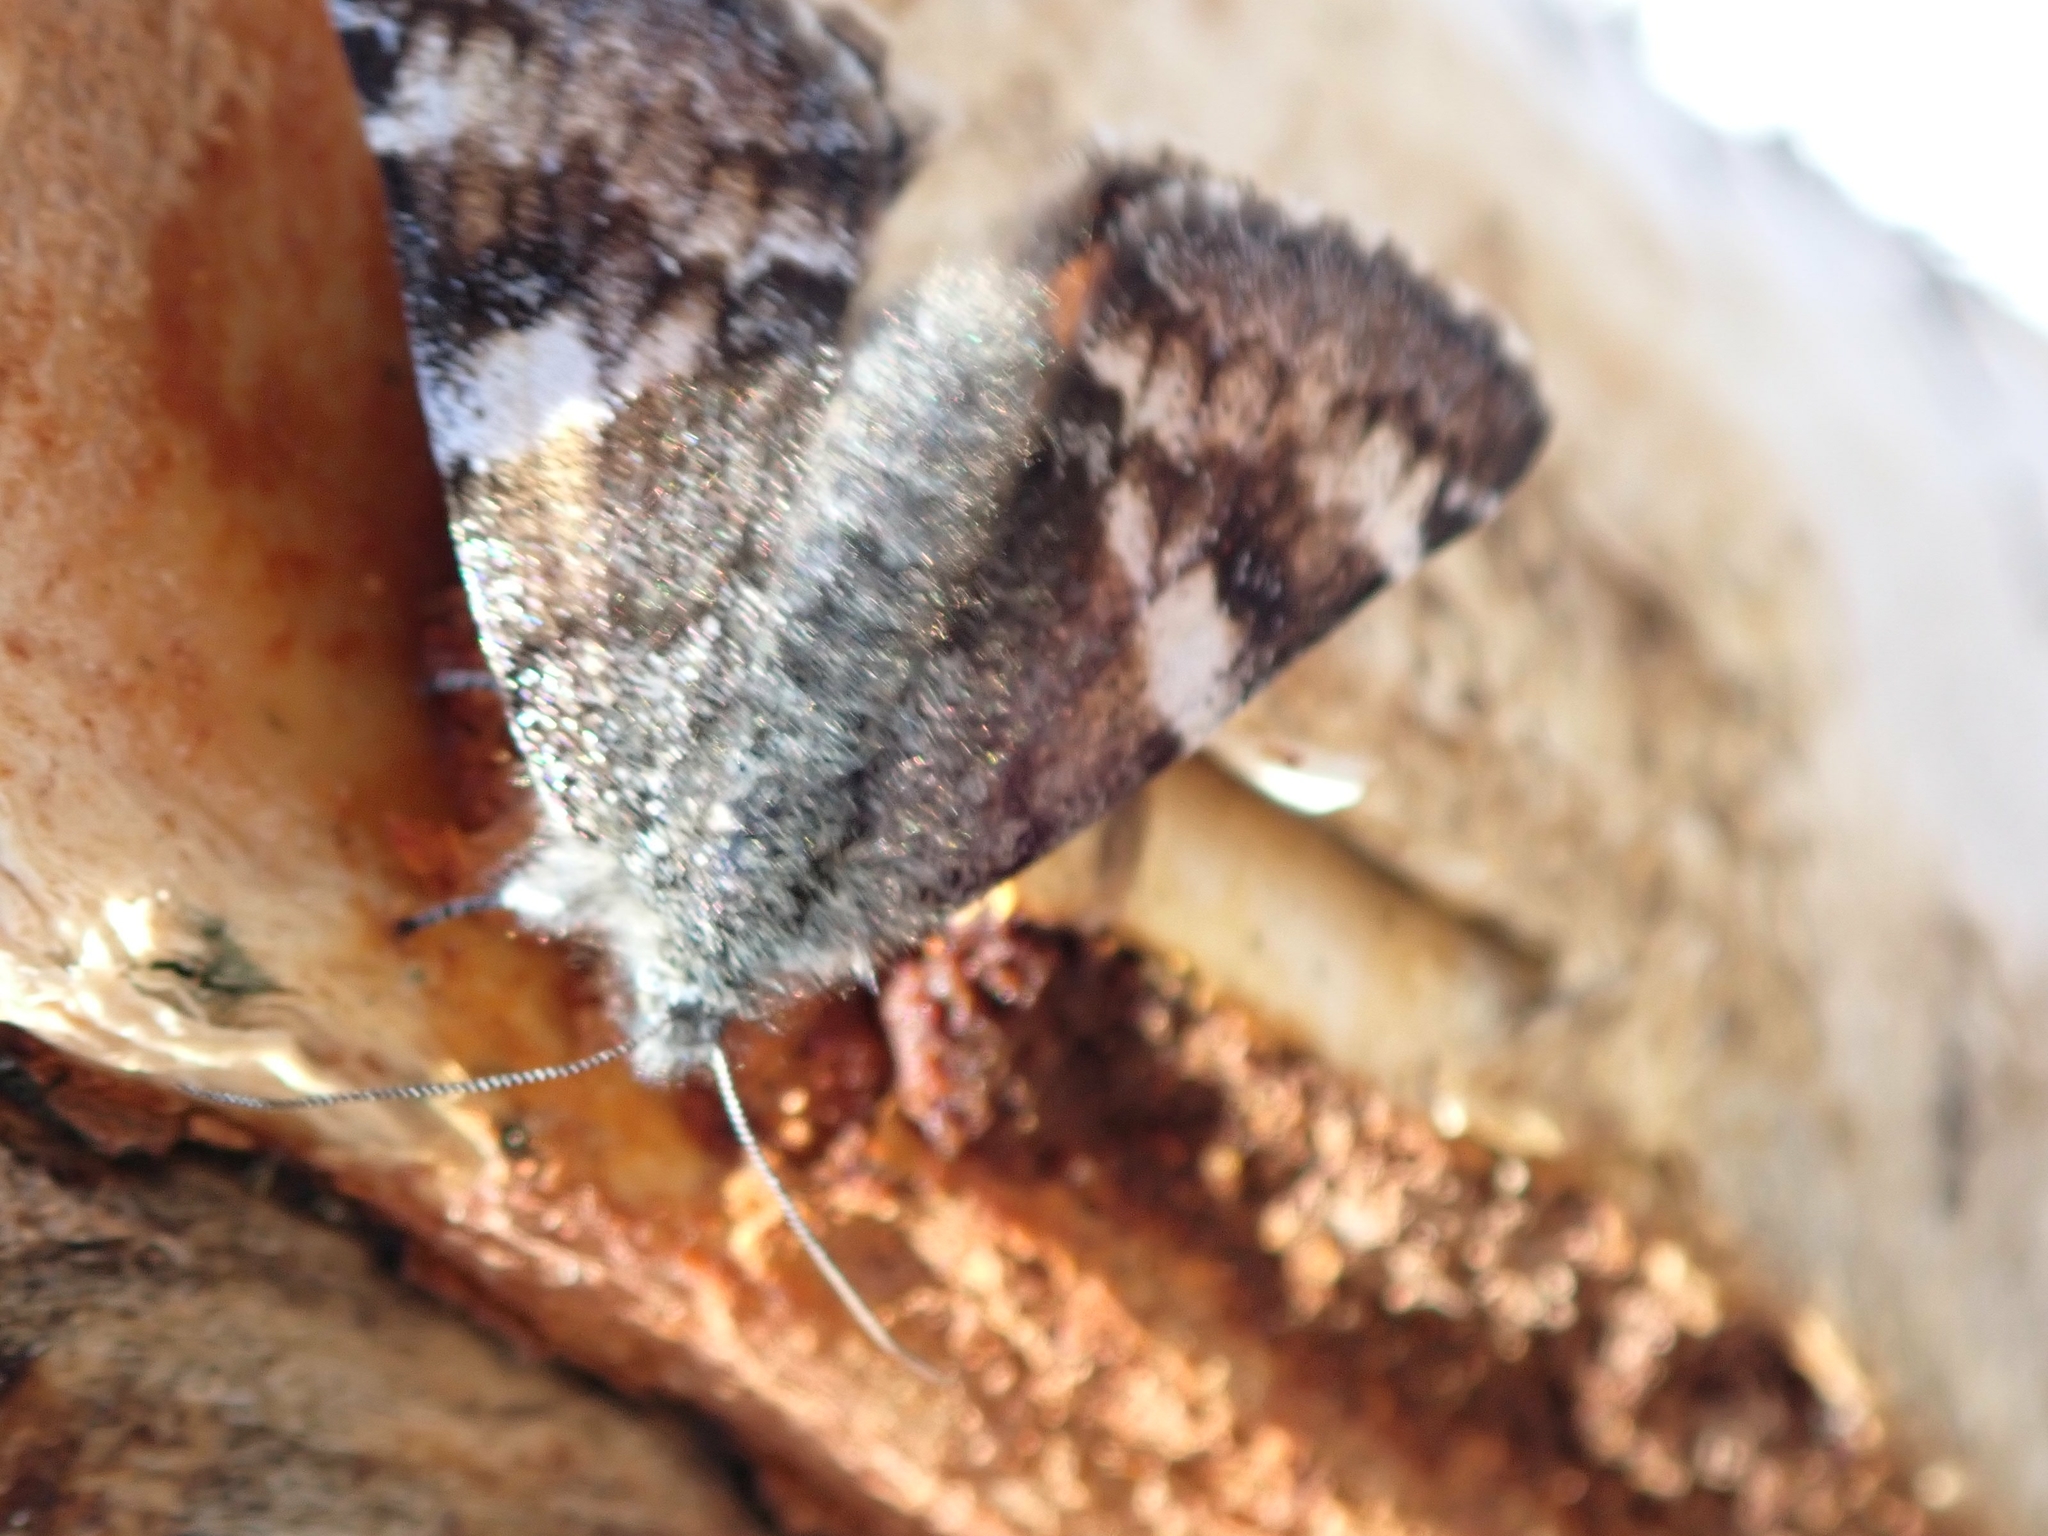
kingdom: Animalia
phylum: Arthropoda
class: Insecta
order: Lepidoptera
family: Geometridae
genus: Archiearis
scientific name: Archiearis infans
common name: First born geometer
